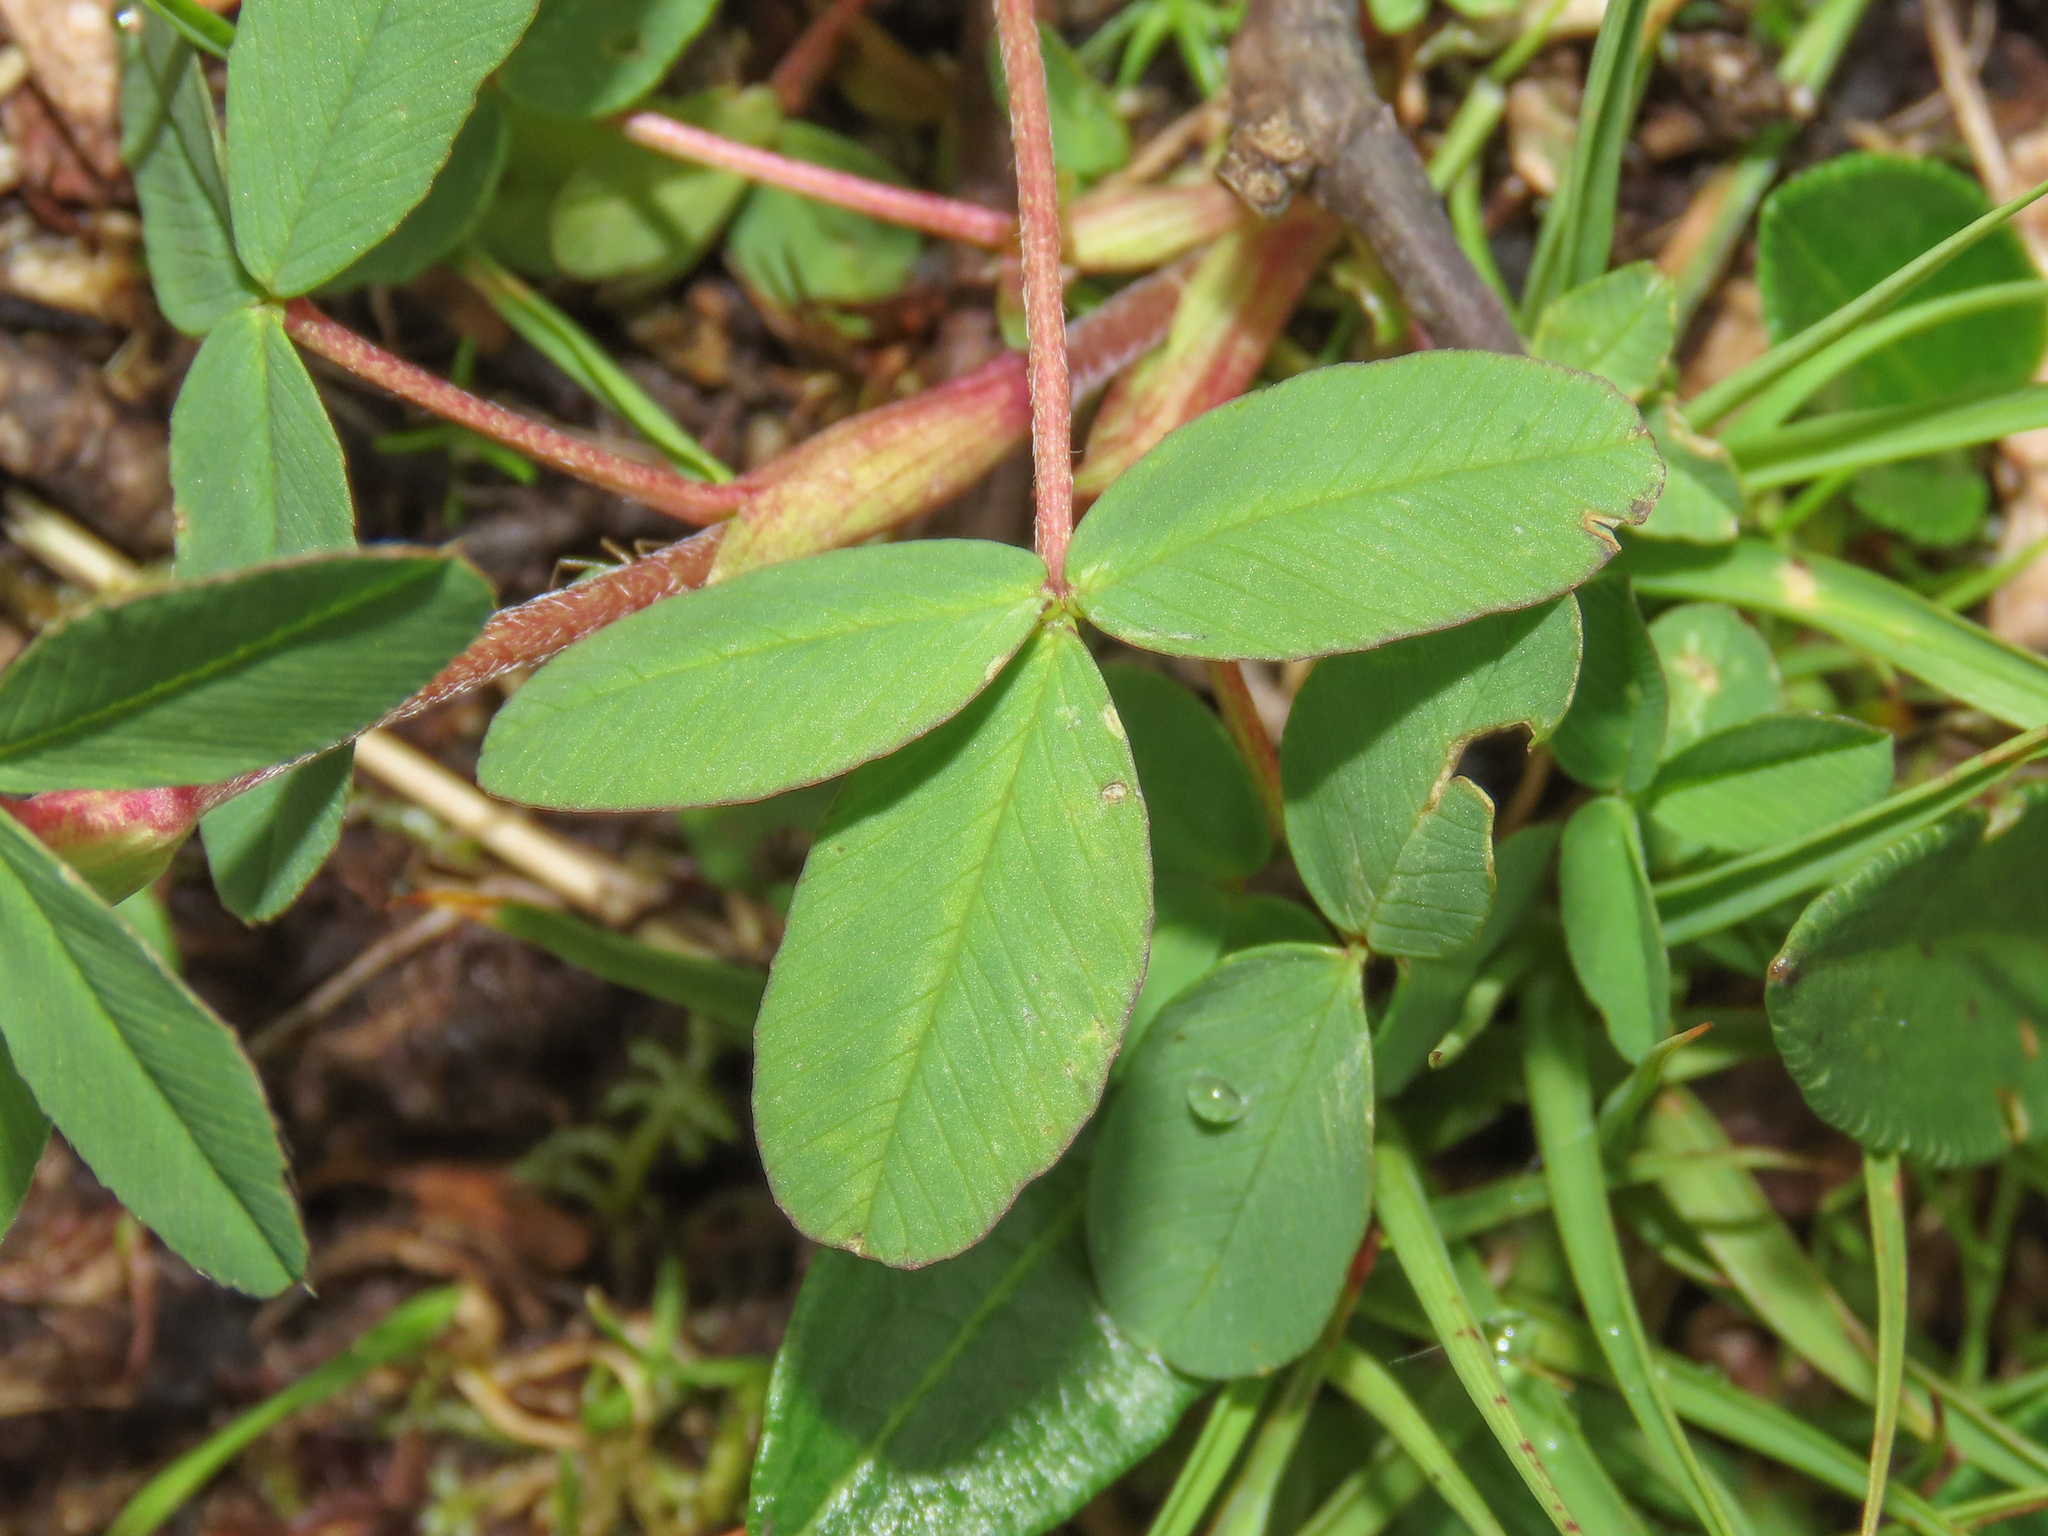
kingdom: Plantae
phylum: Tracheophyta
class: Magnoliopsida
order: Fabales
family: Fabaceae
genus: Trifolium
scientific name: Trifolium badium
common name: Brown clover
